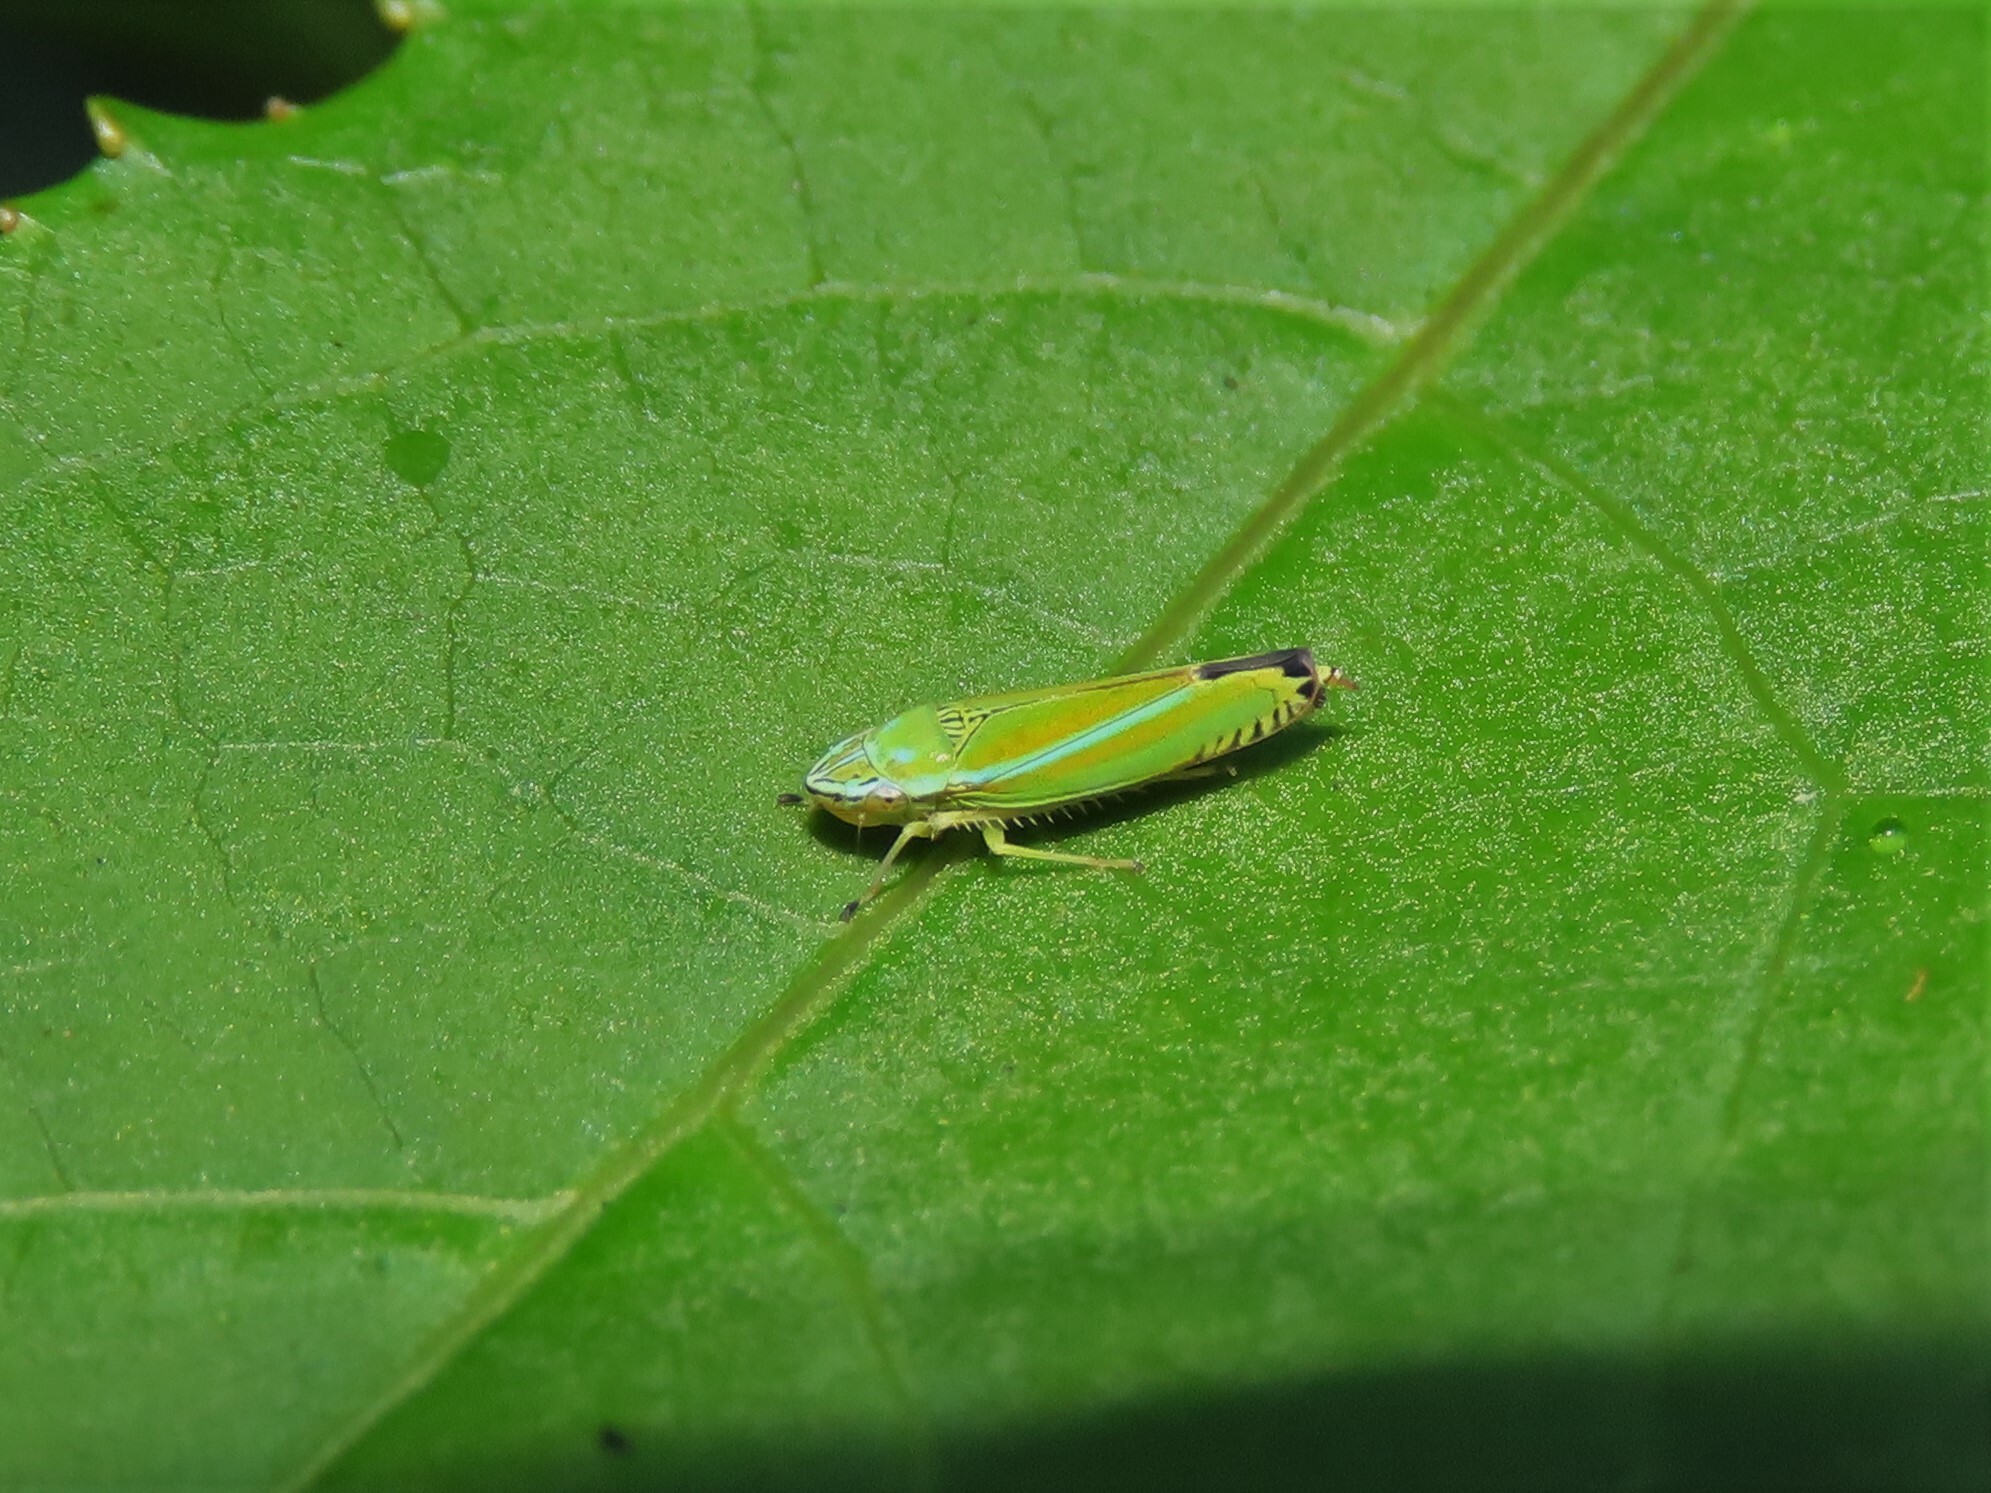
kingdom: Animalia
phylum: Arthropoda
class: Insecta
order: Hemiptera
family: Cicadellidae
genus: Graphocephala
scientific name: Graphocephala versuta
